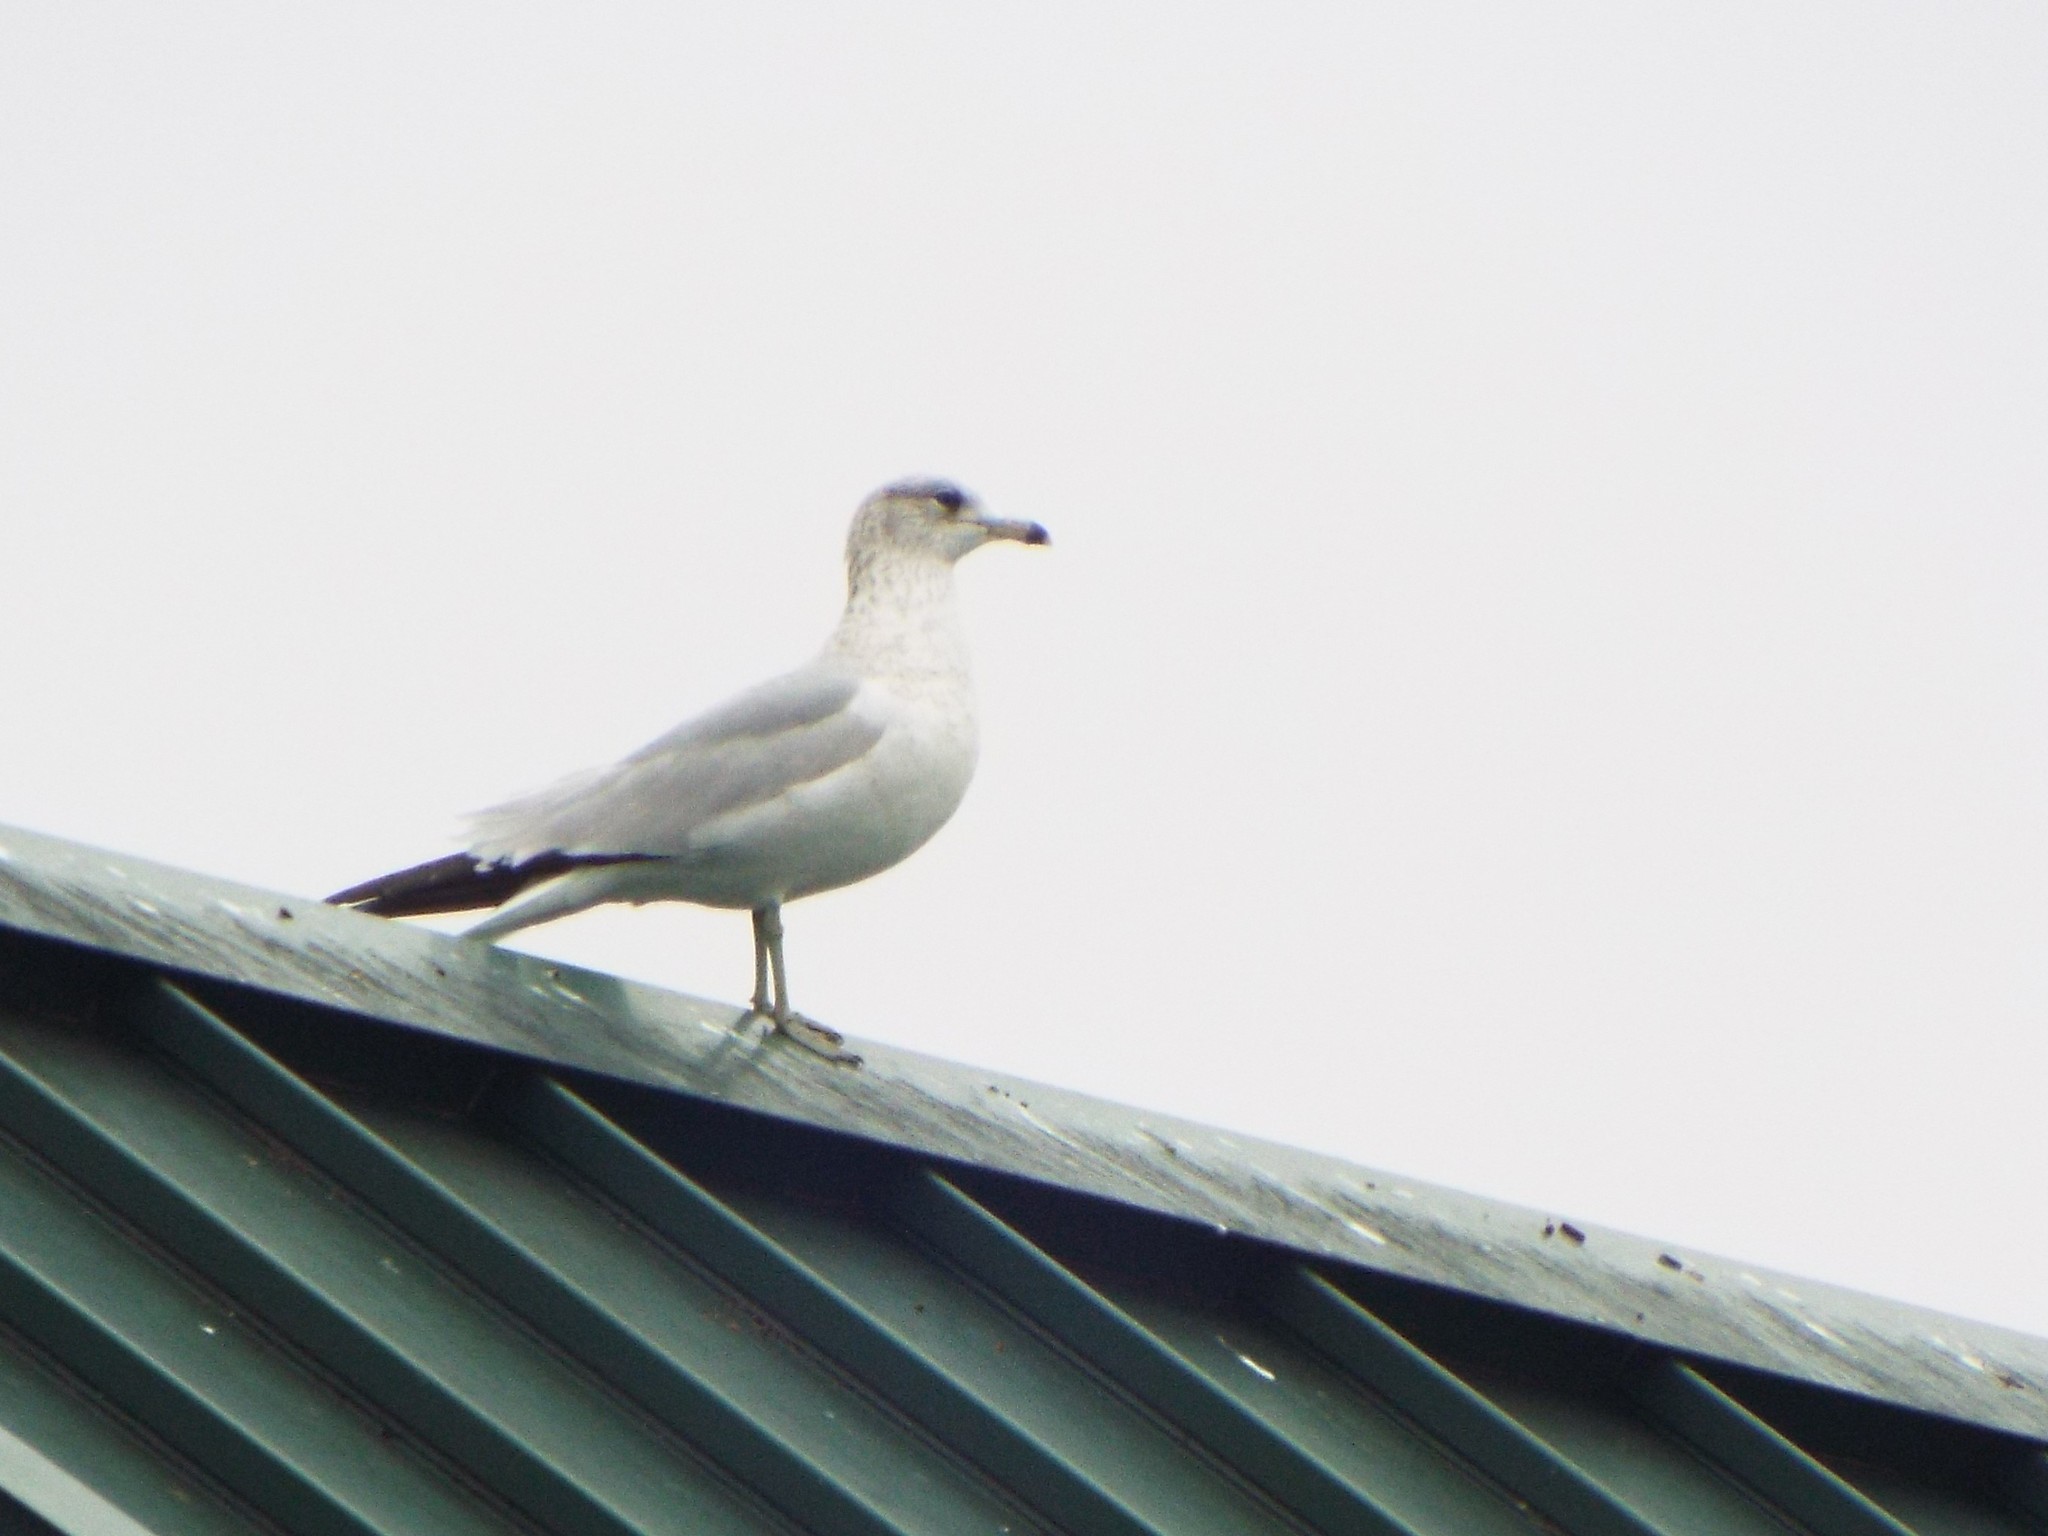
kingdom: Animalia
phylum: Chordata
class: Aves
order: Charadriiformes
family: Laridae
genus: Larus
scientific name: Larus delawarensis
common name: Ring-billed gull
